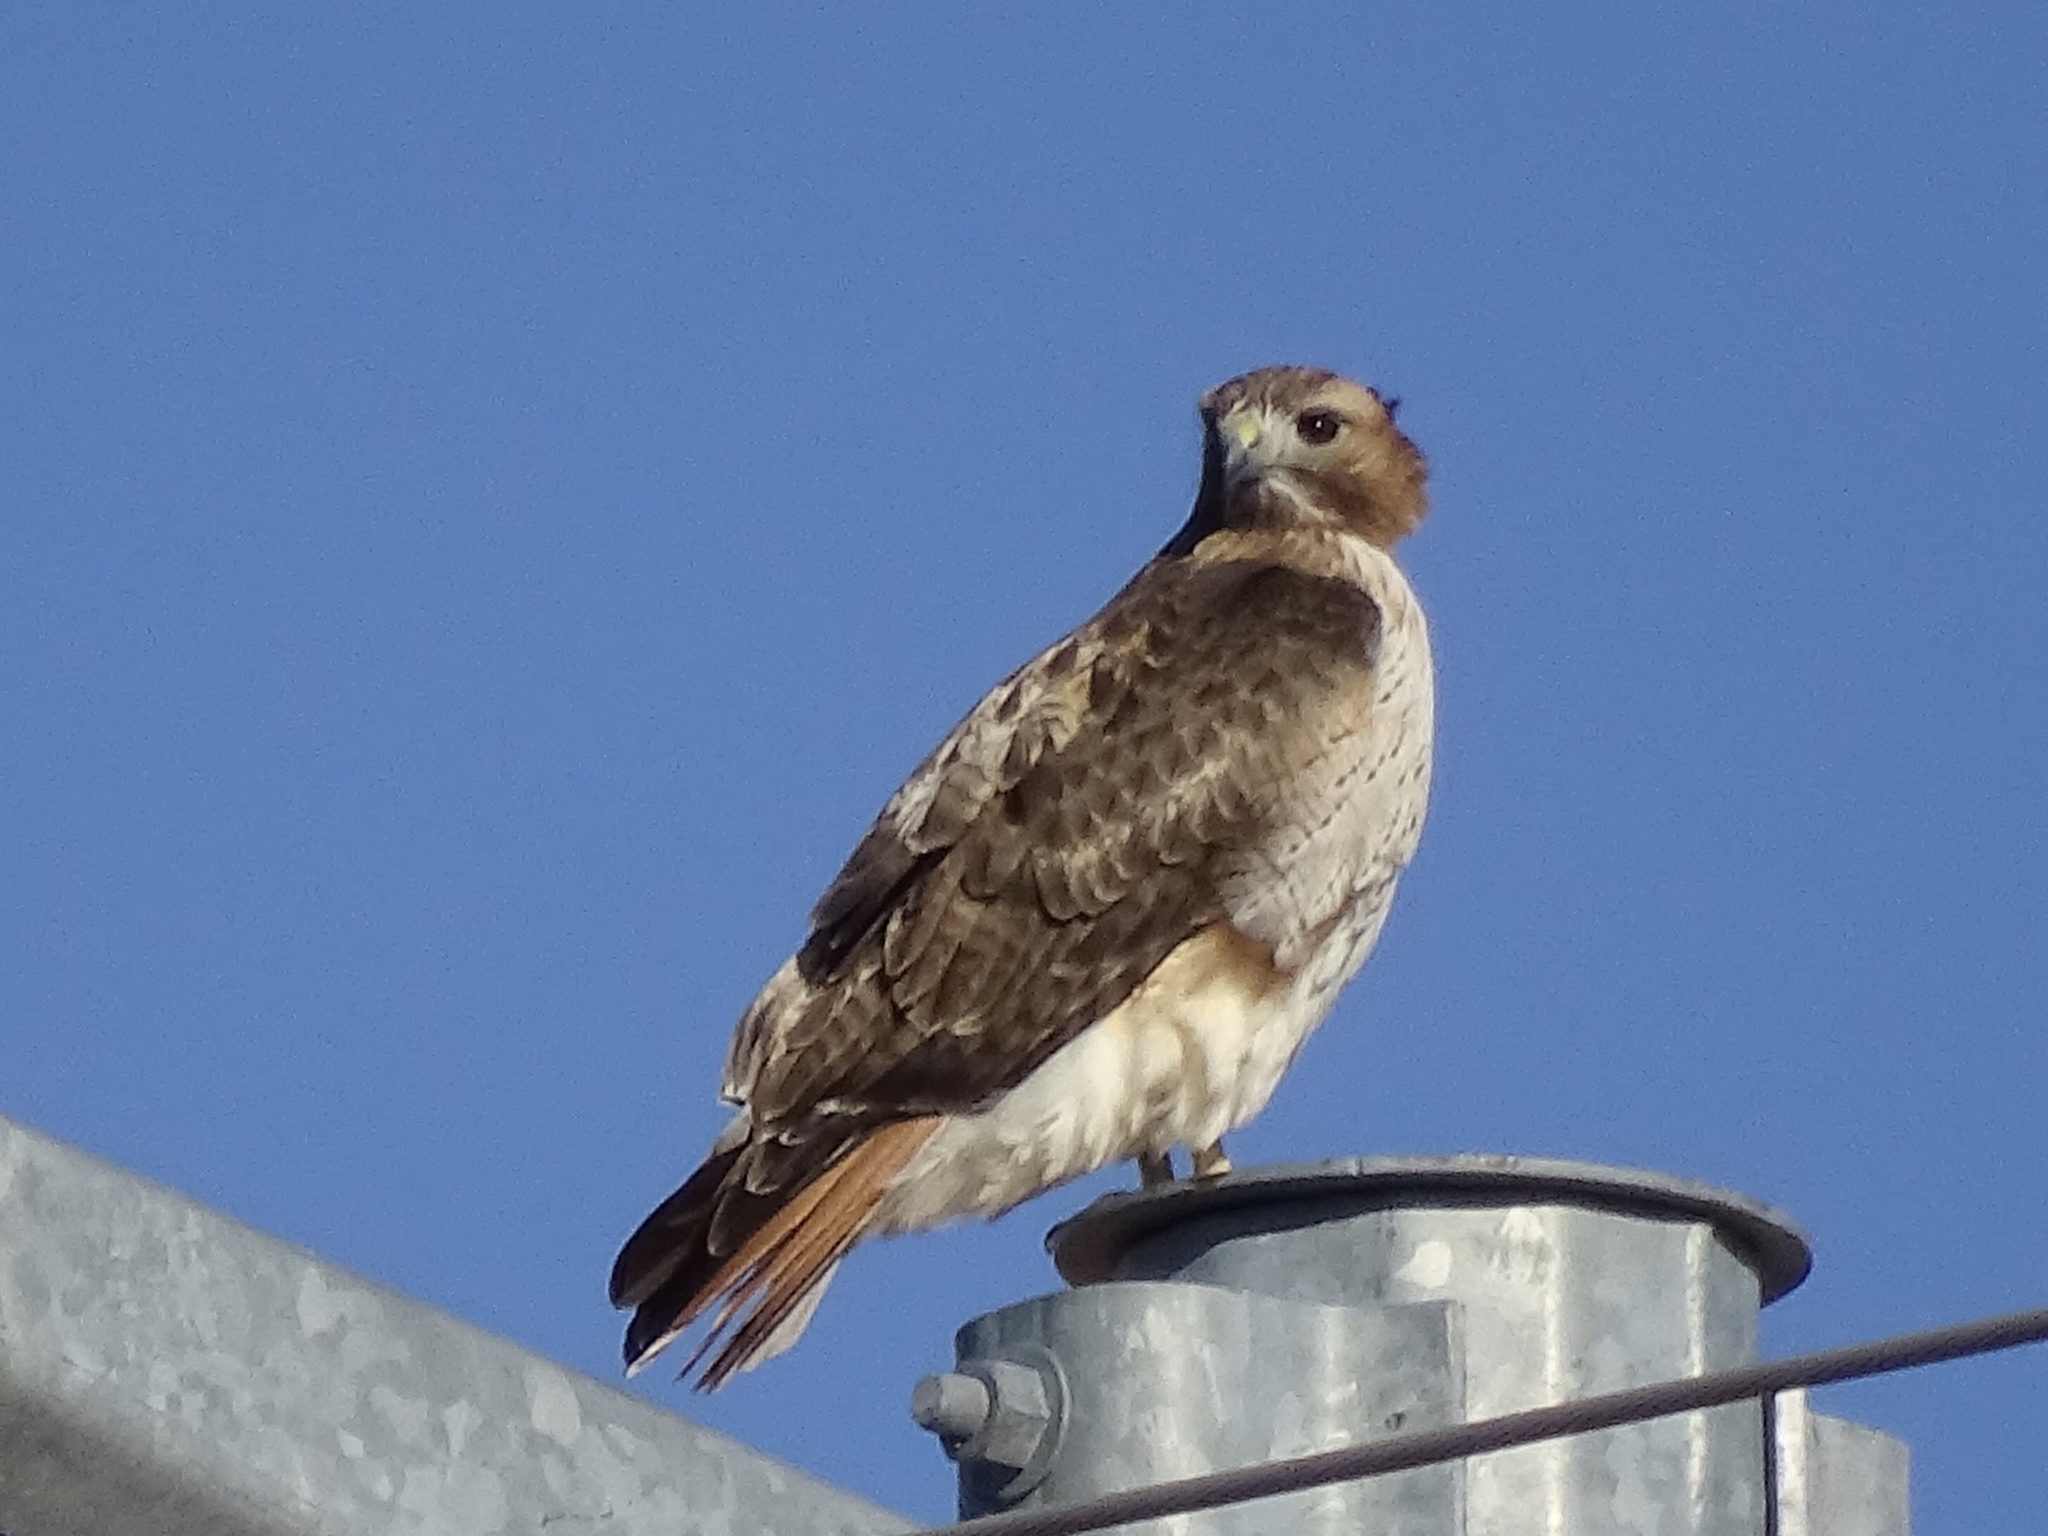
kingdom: Animalia
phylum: Chordata
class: Aves
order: Accipitriformes
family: Accipitridae
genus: Buteo
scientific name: Buteo jamaicensis
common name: Red-tailed hawk
